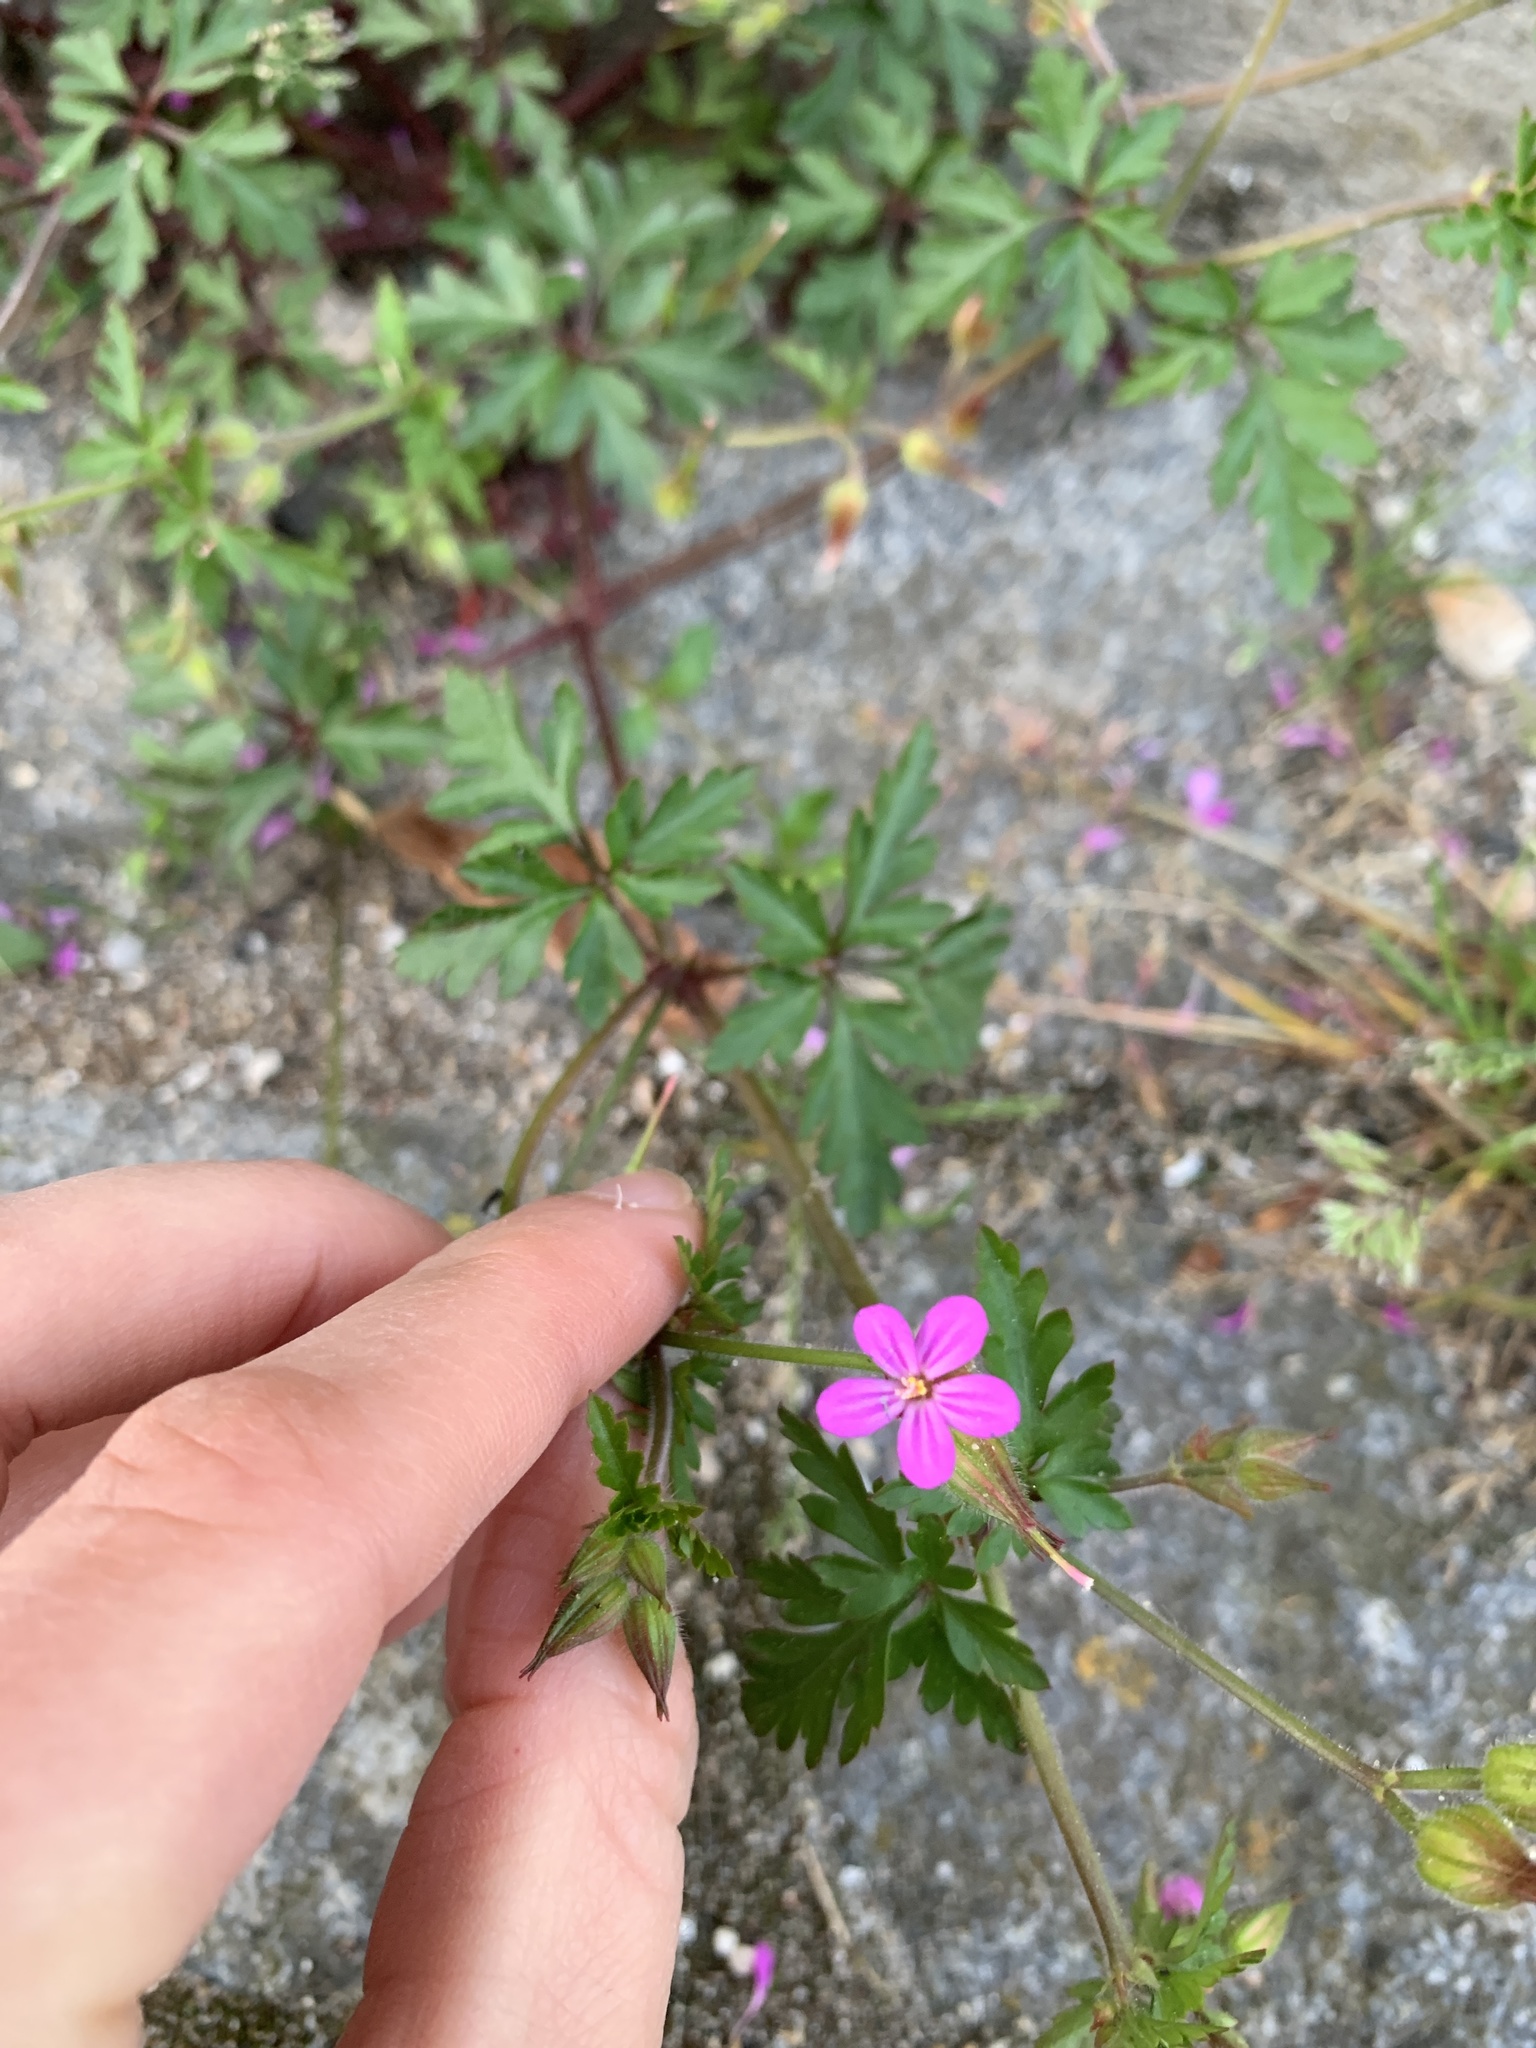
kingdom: Plantae
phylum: Tracheophyta
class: Magnoliopsida
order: Geraniales
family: Geraniaceae
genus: Geranium
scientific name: Geranium purpureum
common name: Little-robin
